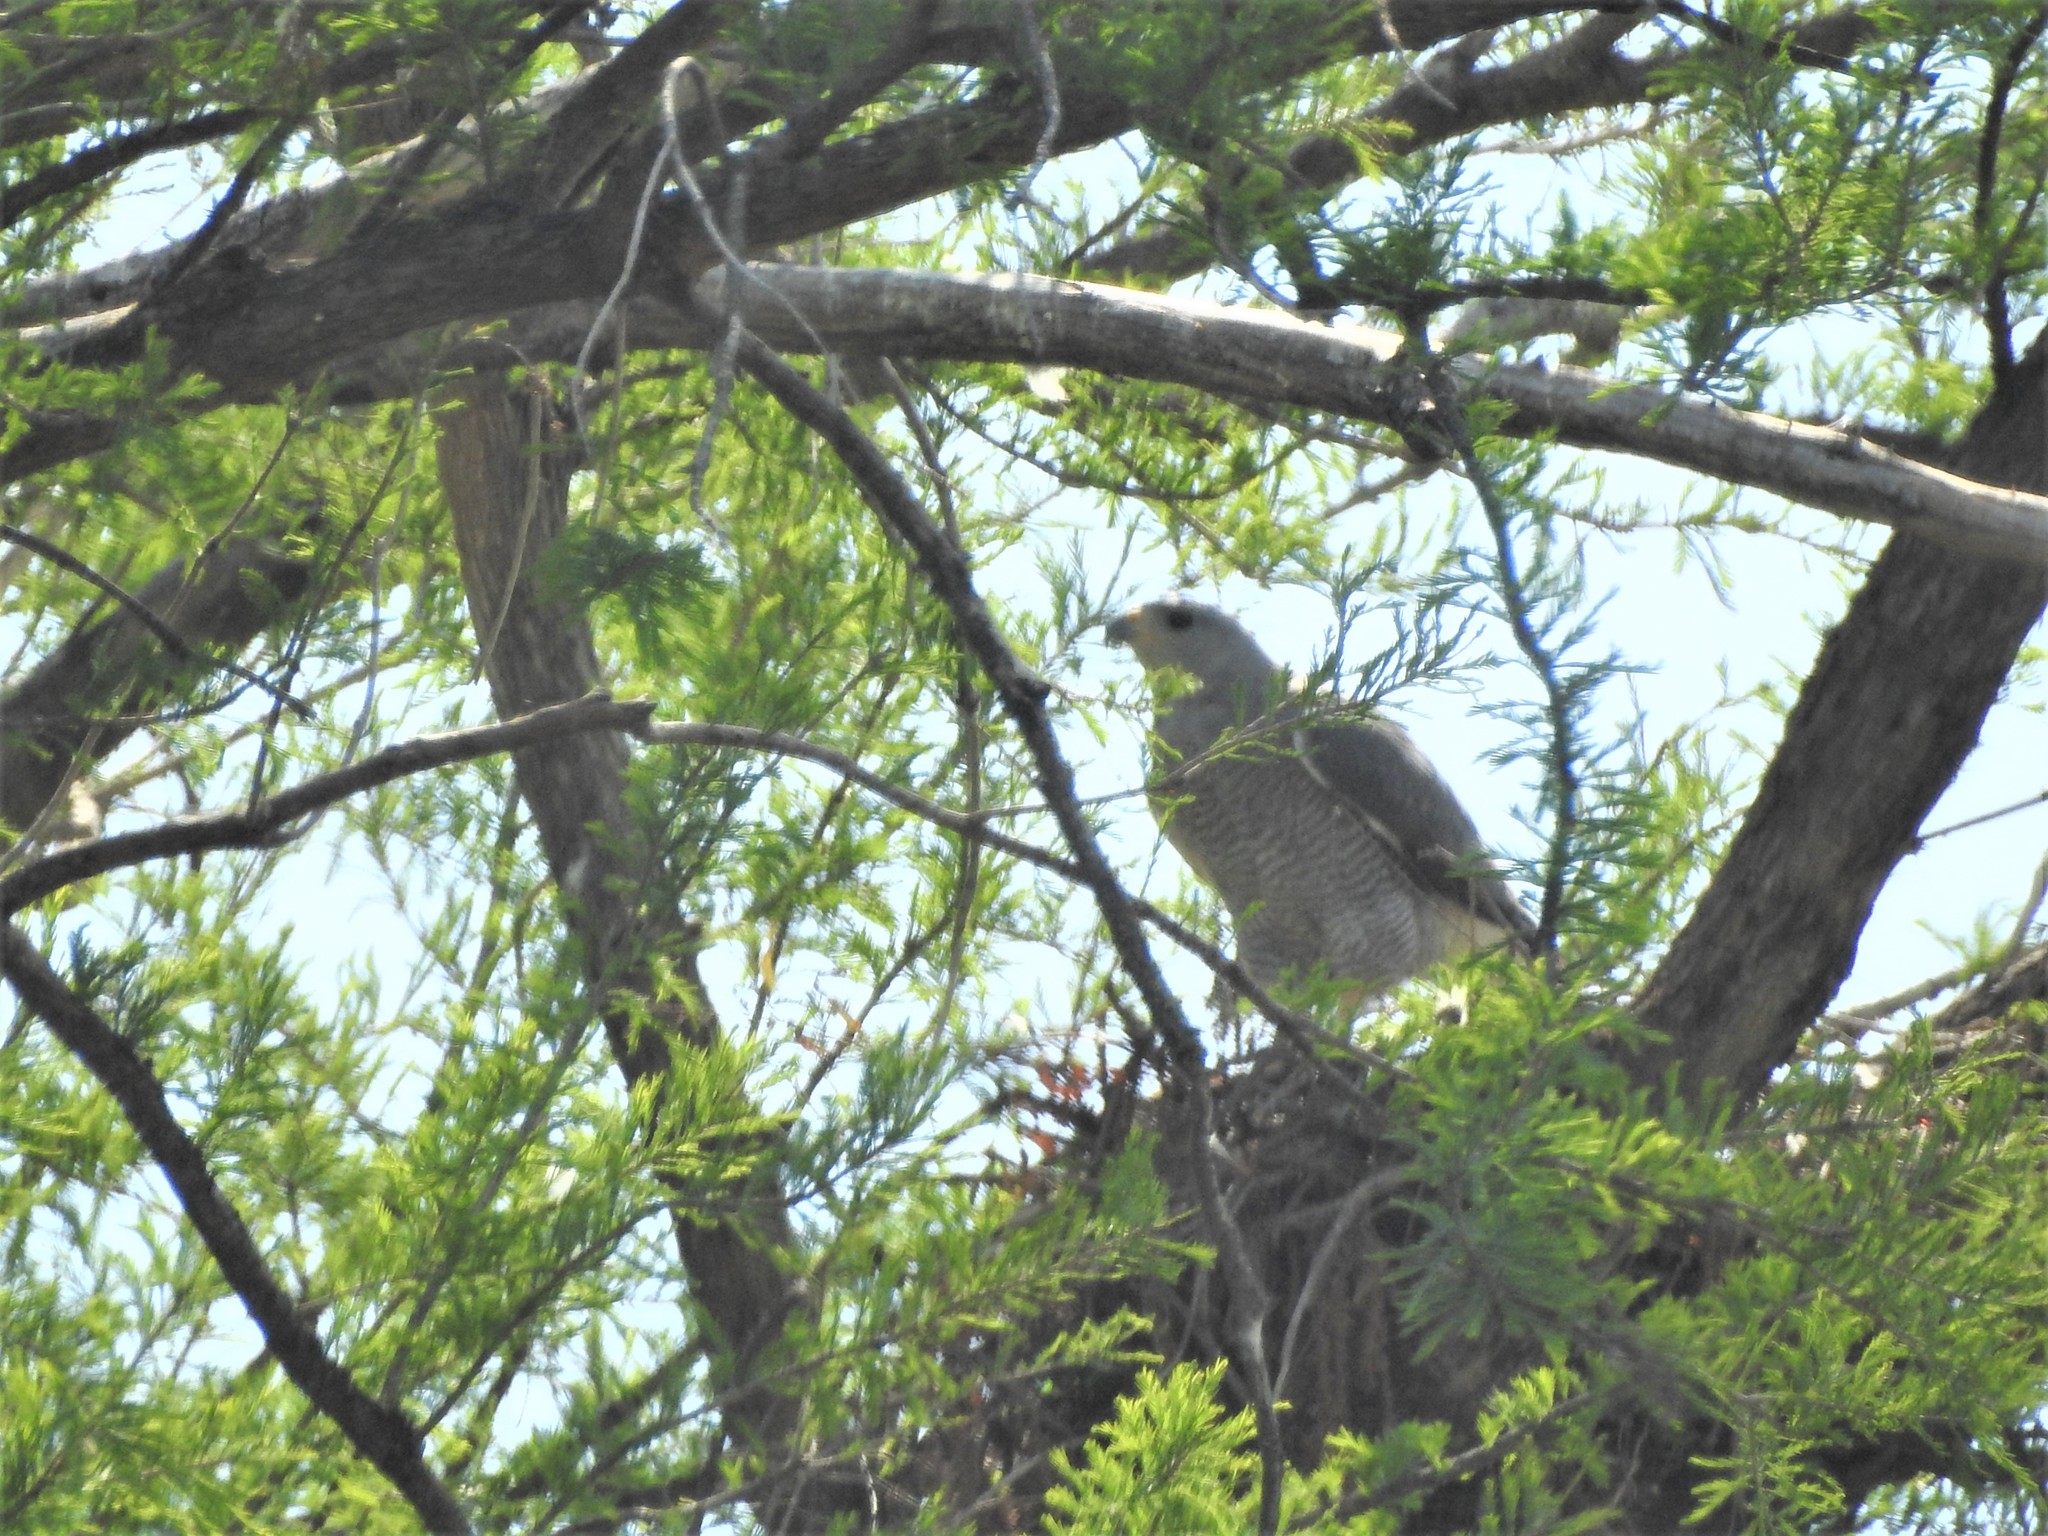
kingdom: Animalia
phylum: Chordata
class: Aves
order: Accipitriformes
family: Accipitridae
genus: Buteo
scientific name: Buteo nitidus
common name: Grey-lined hawk
